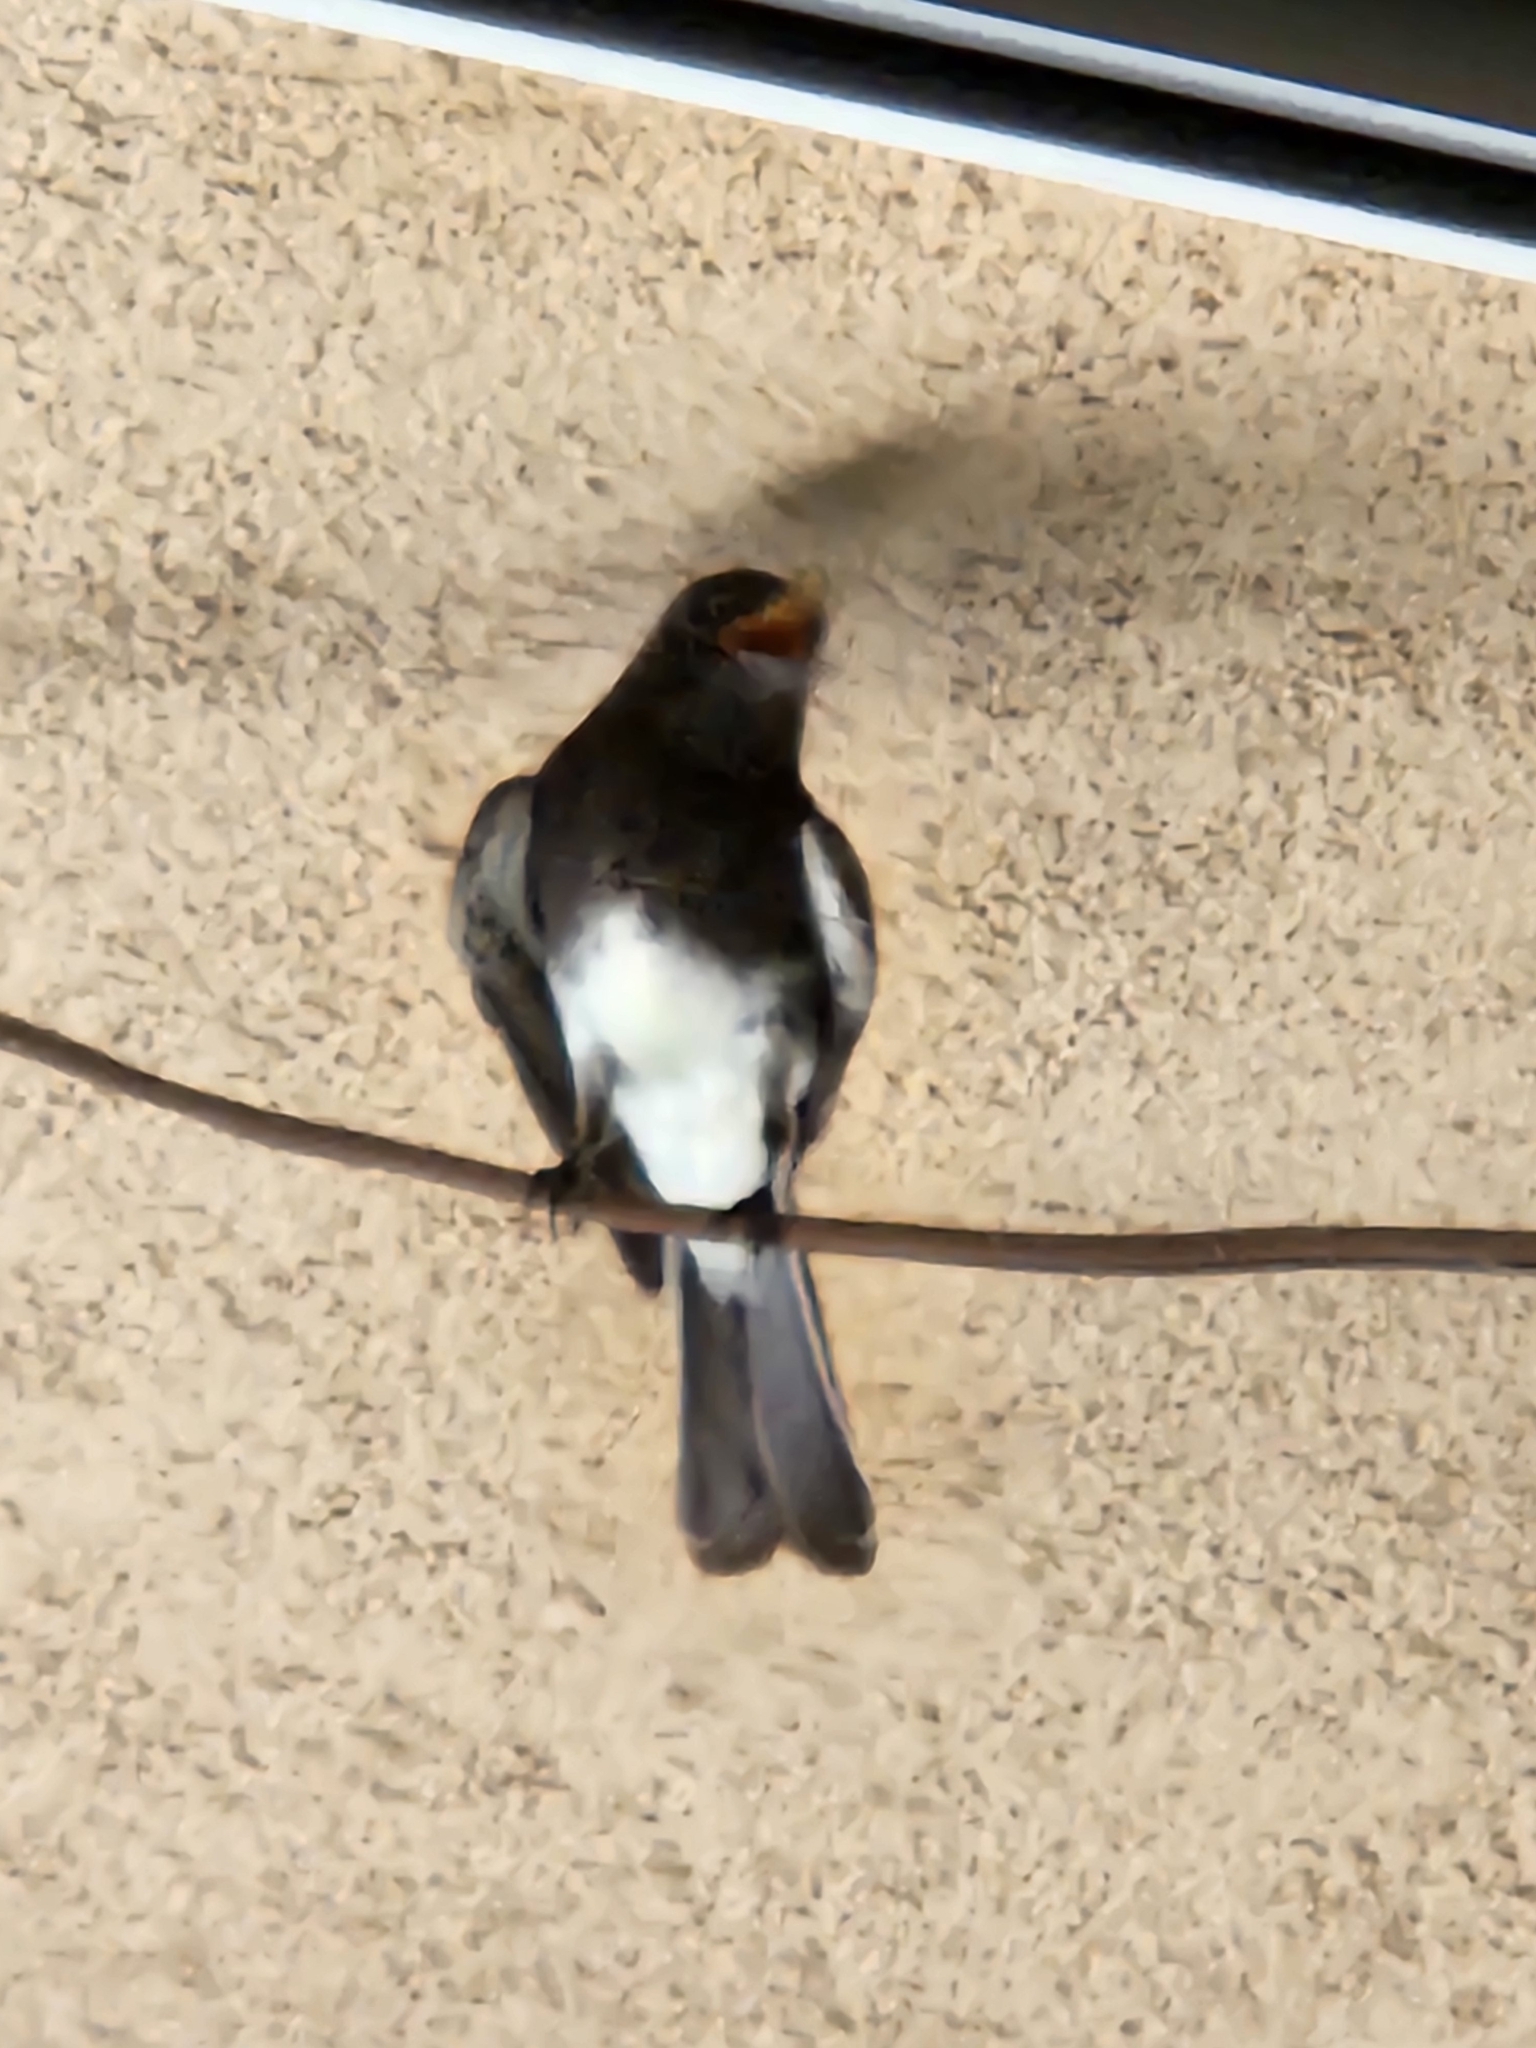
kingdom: Animalia
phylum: Chordata
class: Aves
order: Passeriformes
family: Tyrannidae
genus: Sayornis
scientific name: Sayornis nigricans
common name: Black phoebe
